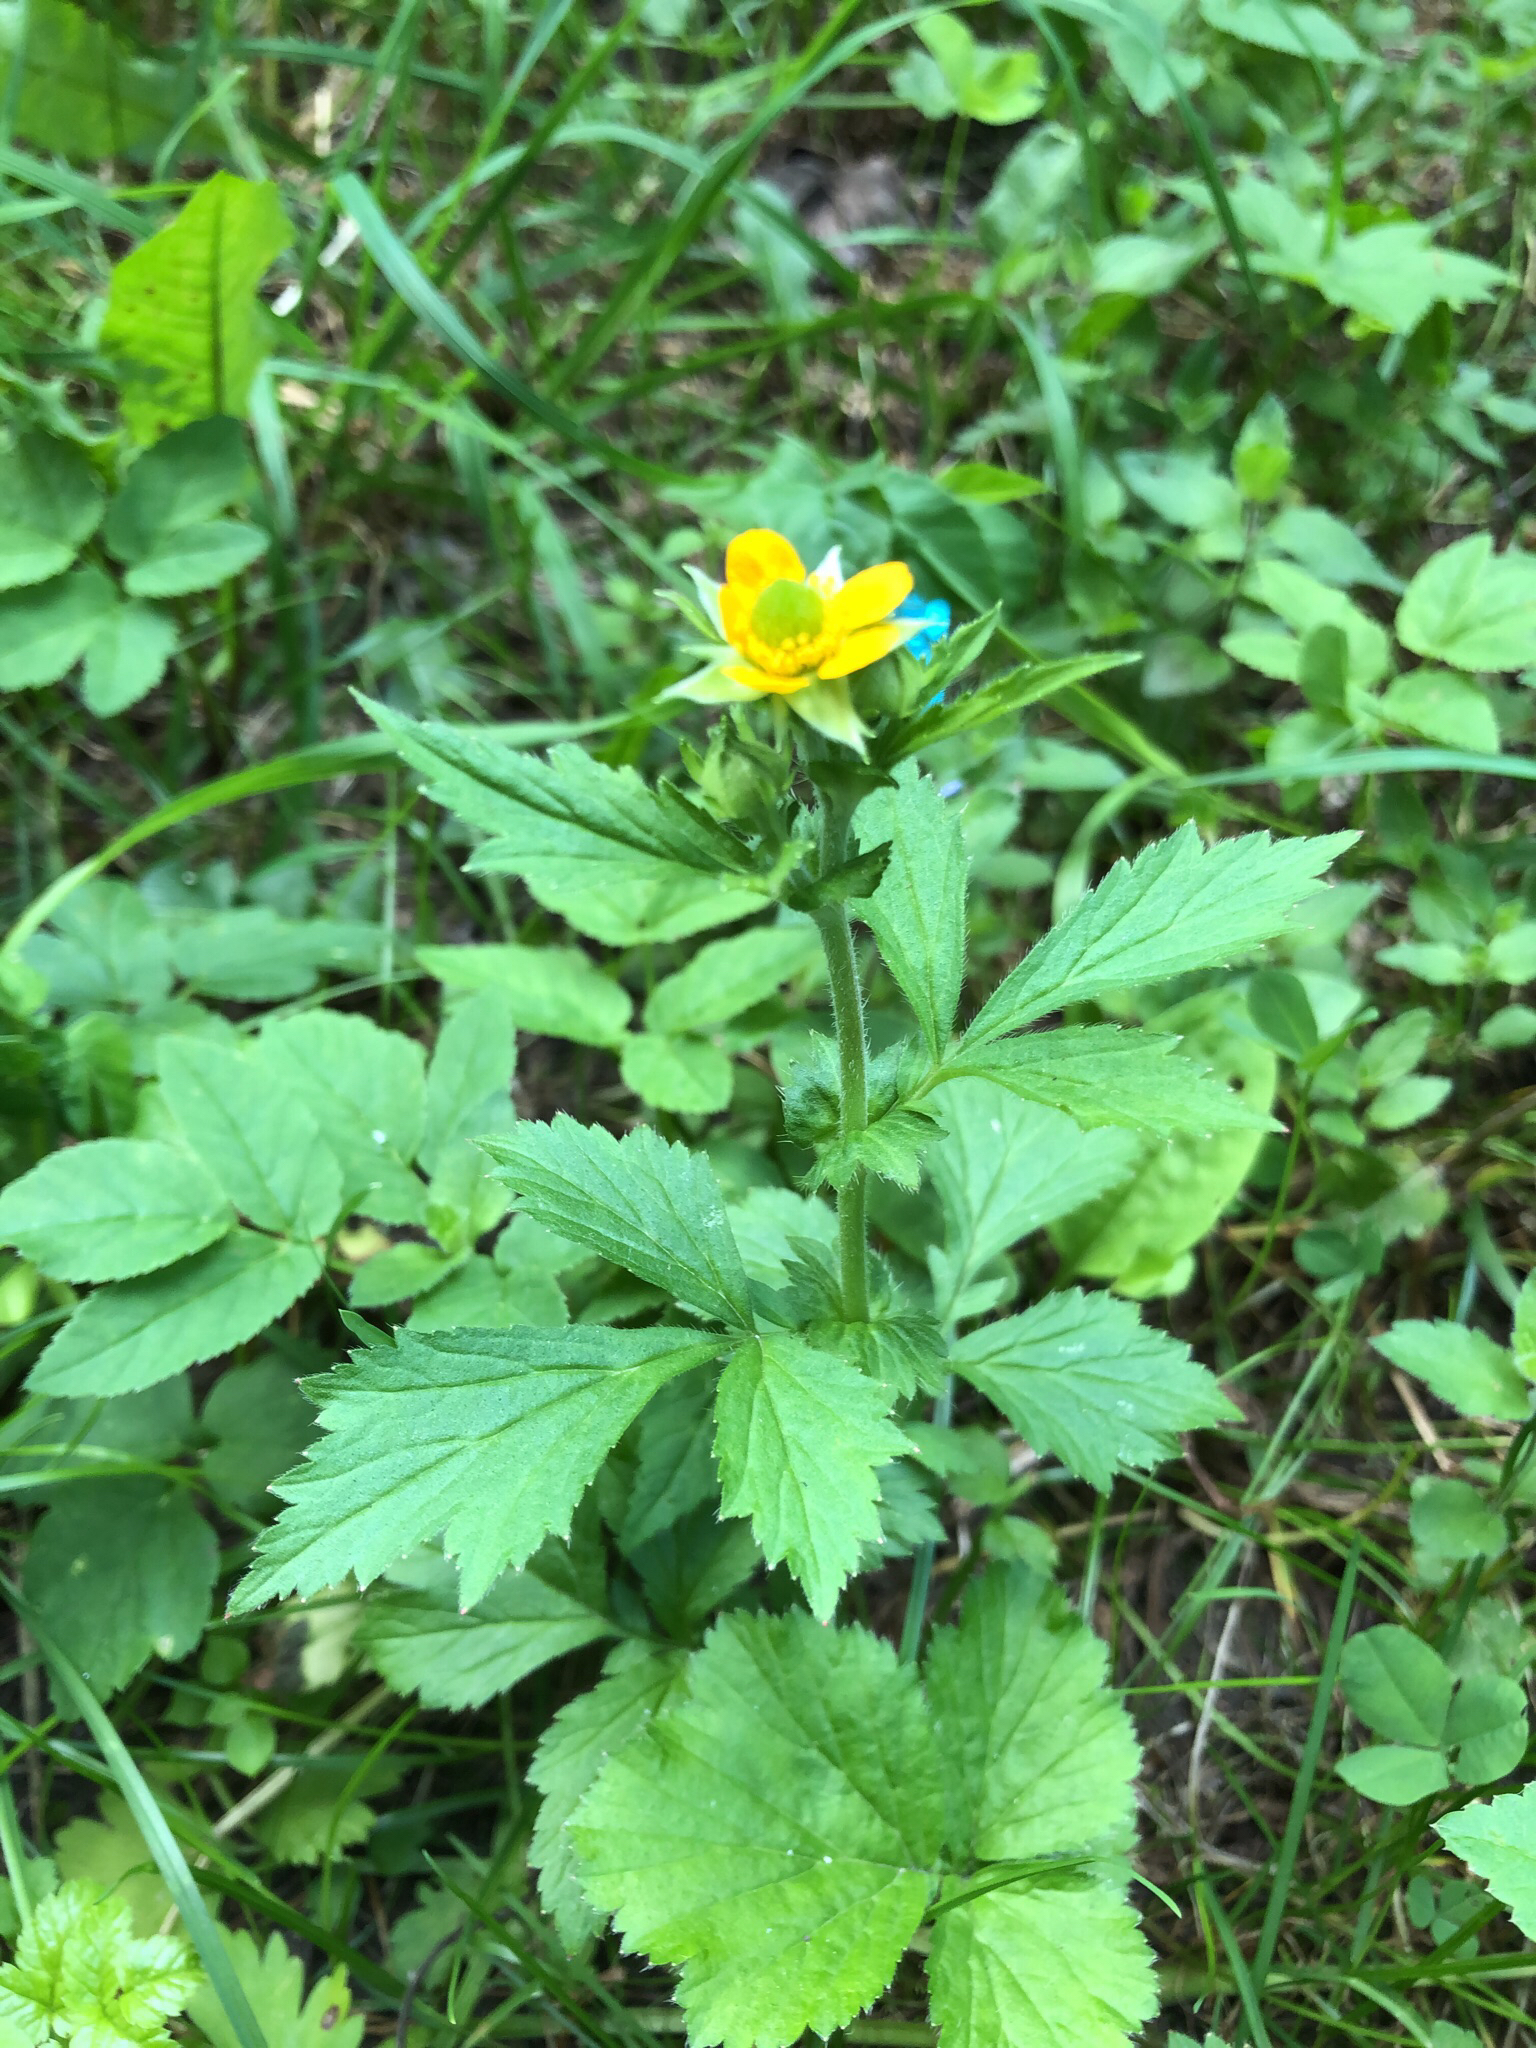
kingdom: Plantae
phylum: Tracheophyta
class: Magnoliopsida
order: Rosales
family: Rosaceae
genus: Geum
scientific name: Geum aleppicum
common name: Yellow avens
